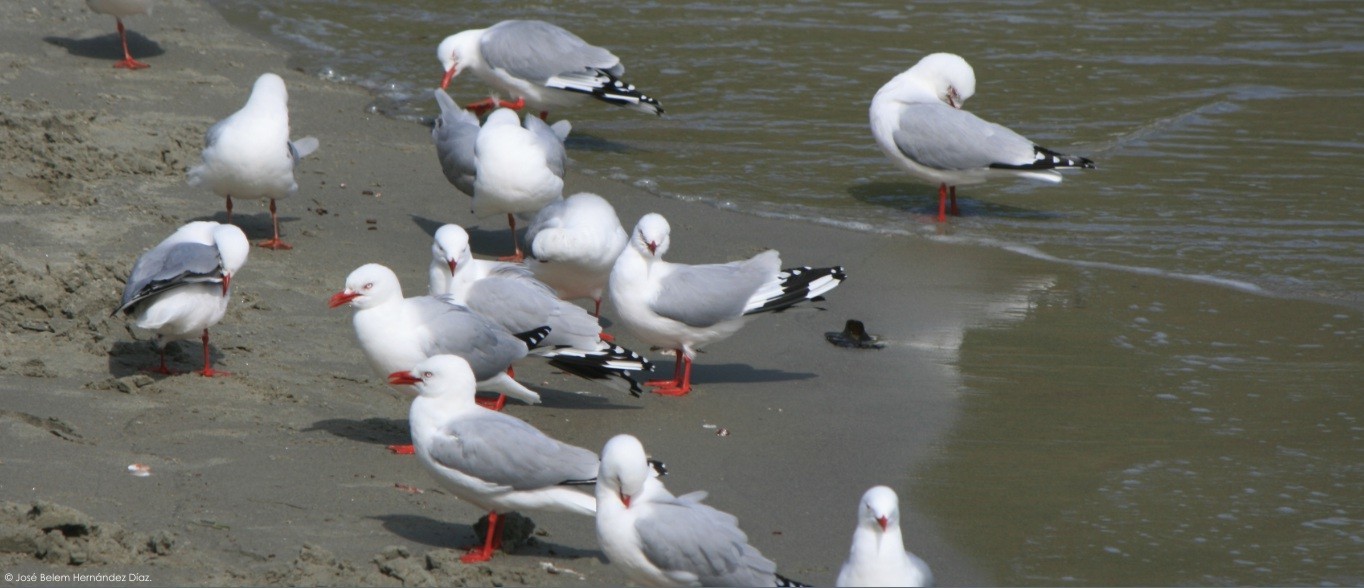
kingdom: Animalia
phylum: Chordata
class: Aves
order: Charadriiformes
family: Laridae
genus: Chroicocephalus
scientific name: Chroicocephalus novaehollandiae
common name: Silver gull
